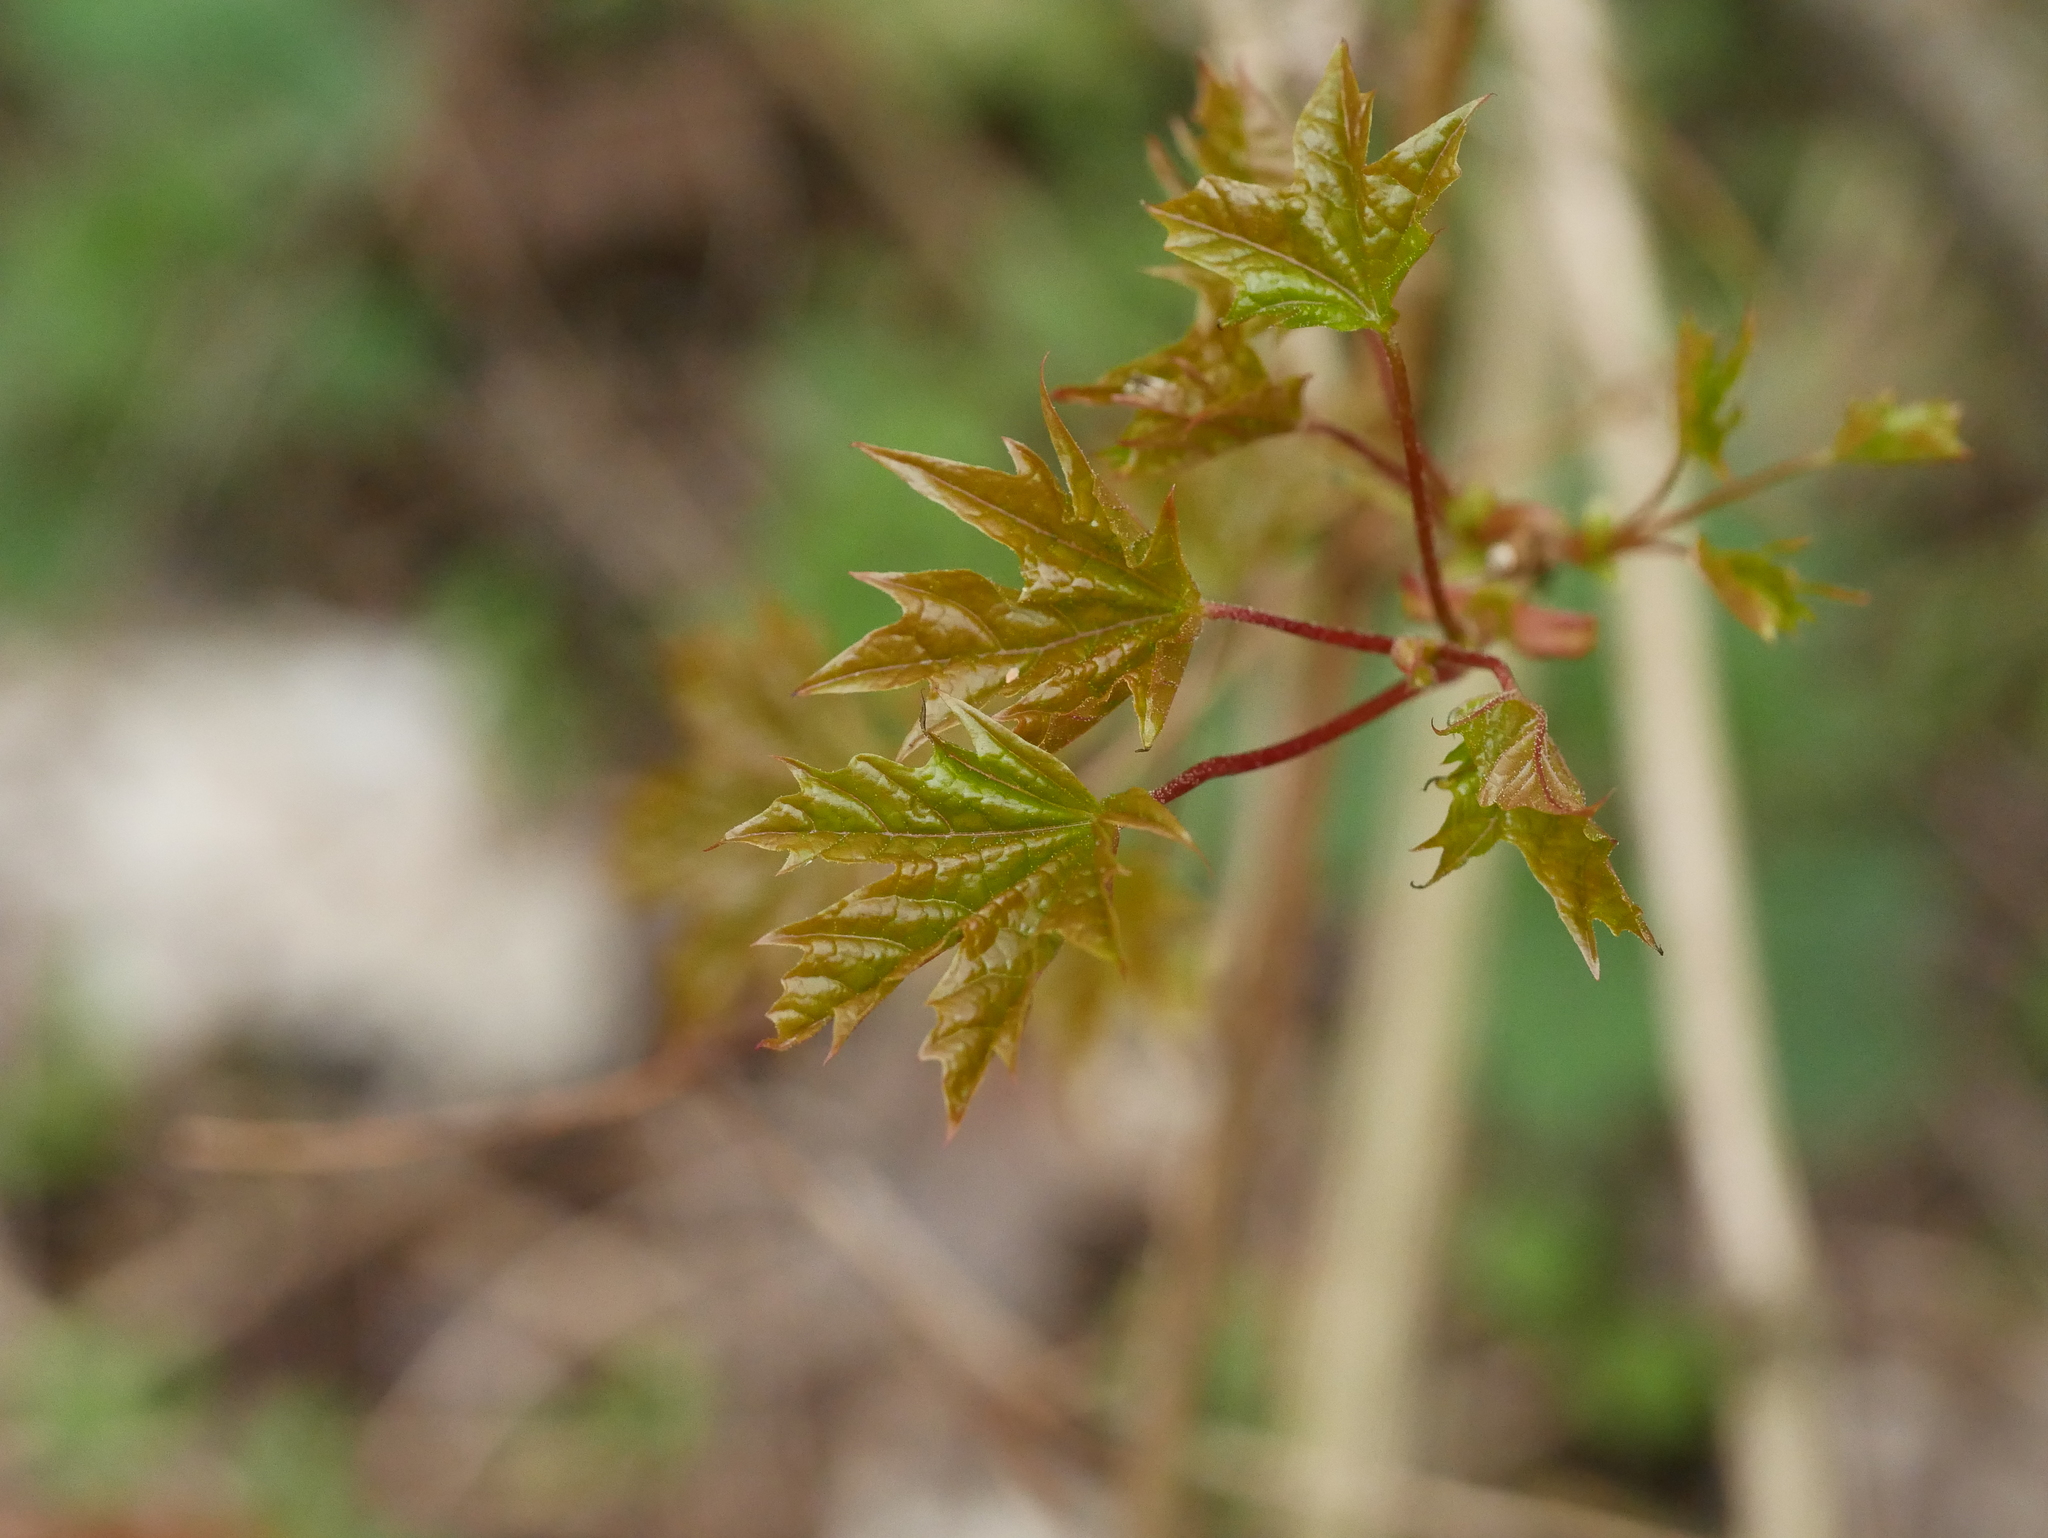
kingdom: Plantae
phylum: Tracheophyta
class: Magnoliopsida
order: Sapindales
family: Sapindaceae
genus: Acer
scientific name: Acer platanoides
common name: Norway maple
